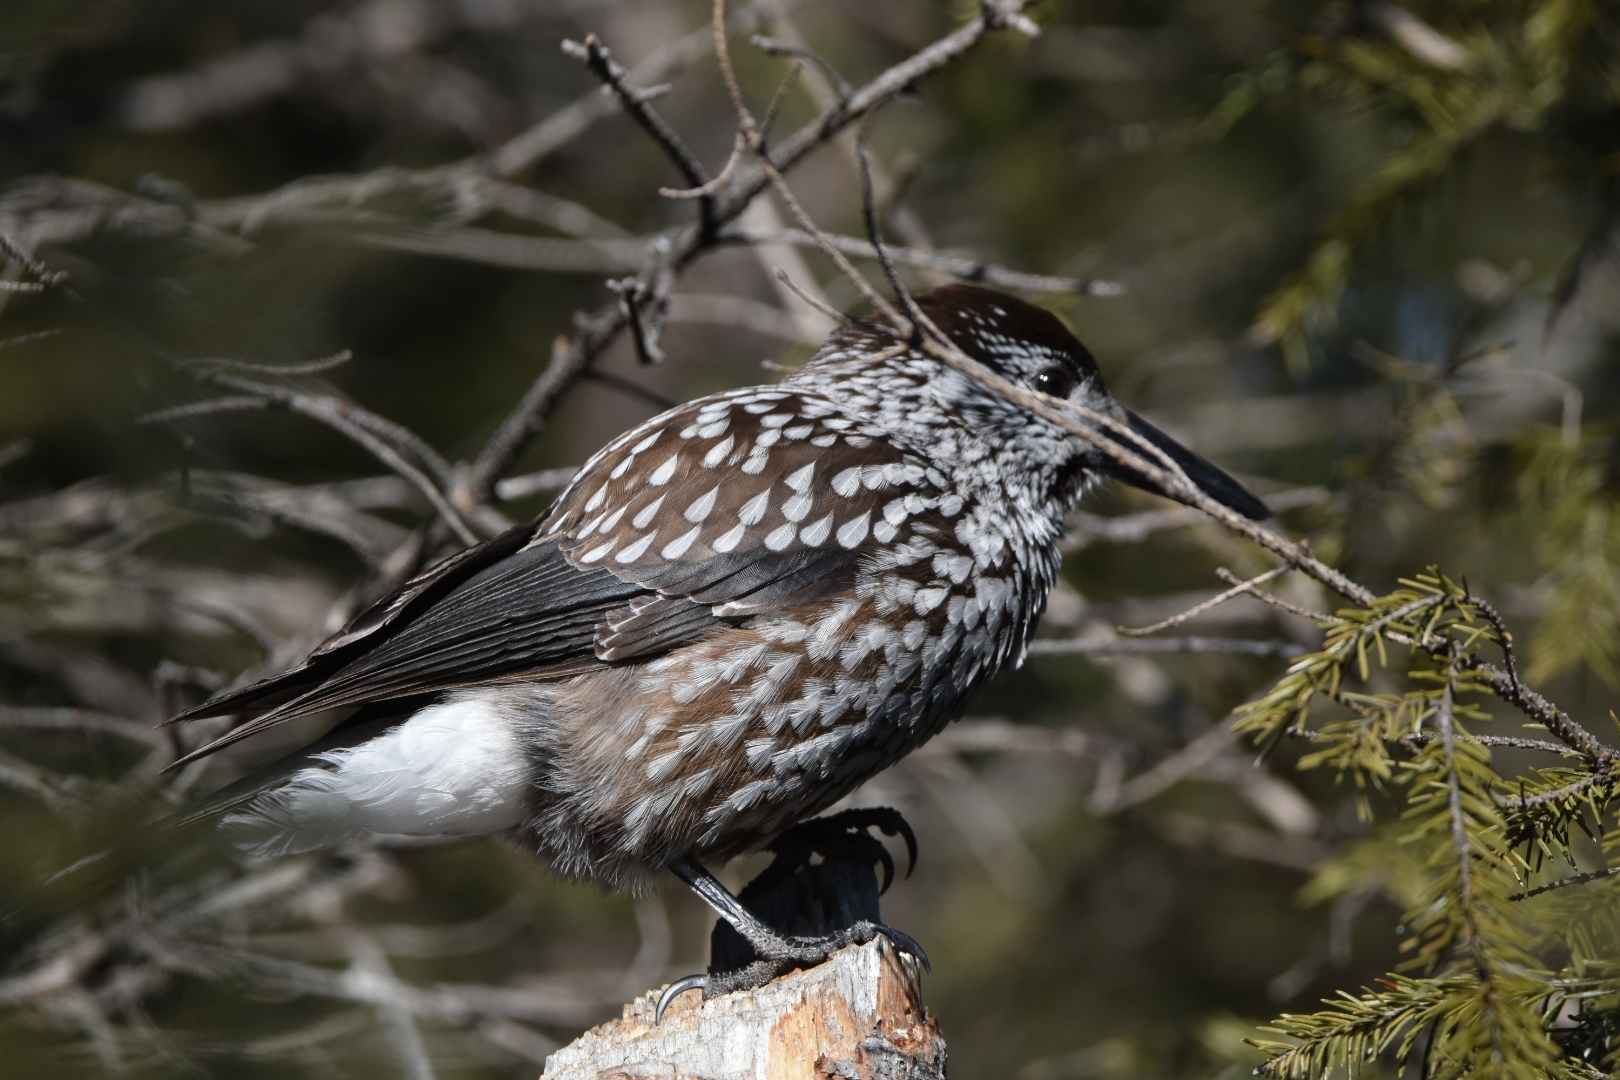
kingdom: Animalia
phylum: Chordata
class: Aves
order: Passeriformes
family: Corvidae
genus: Nucifraga
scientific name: Nucifraga caryocatactes
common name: Spotted nutcracker
